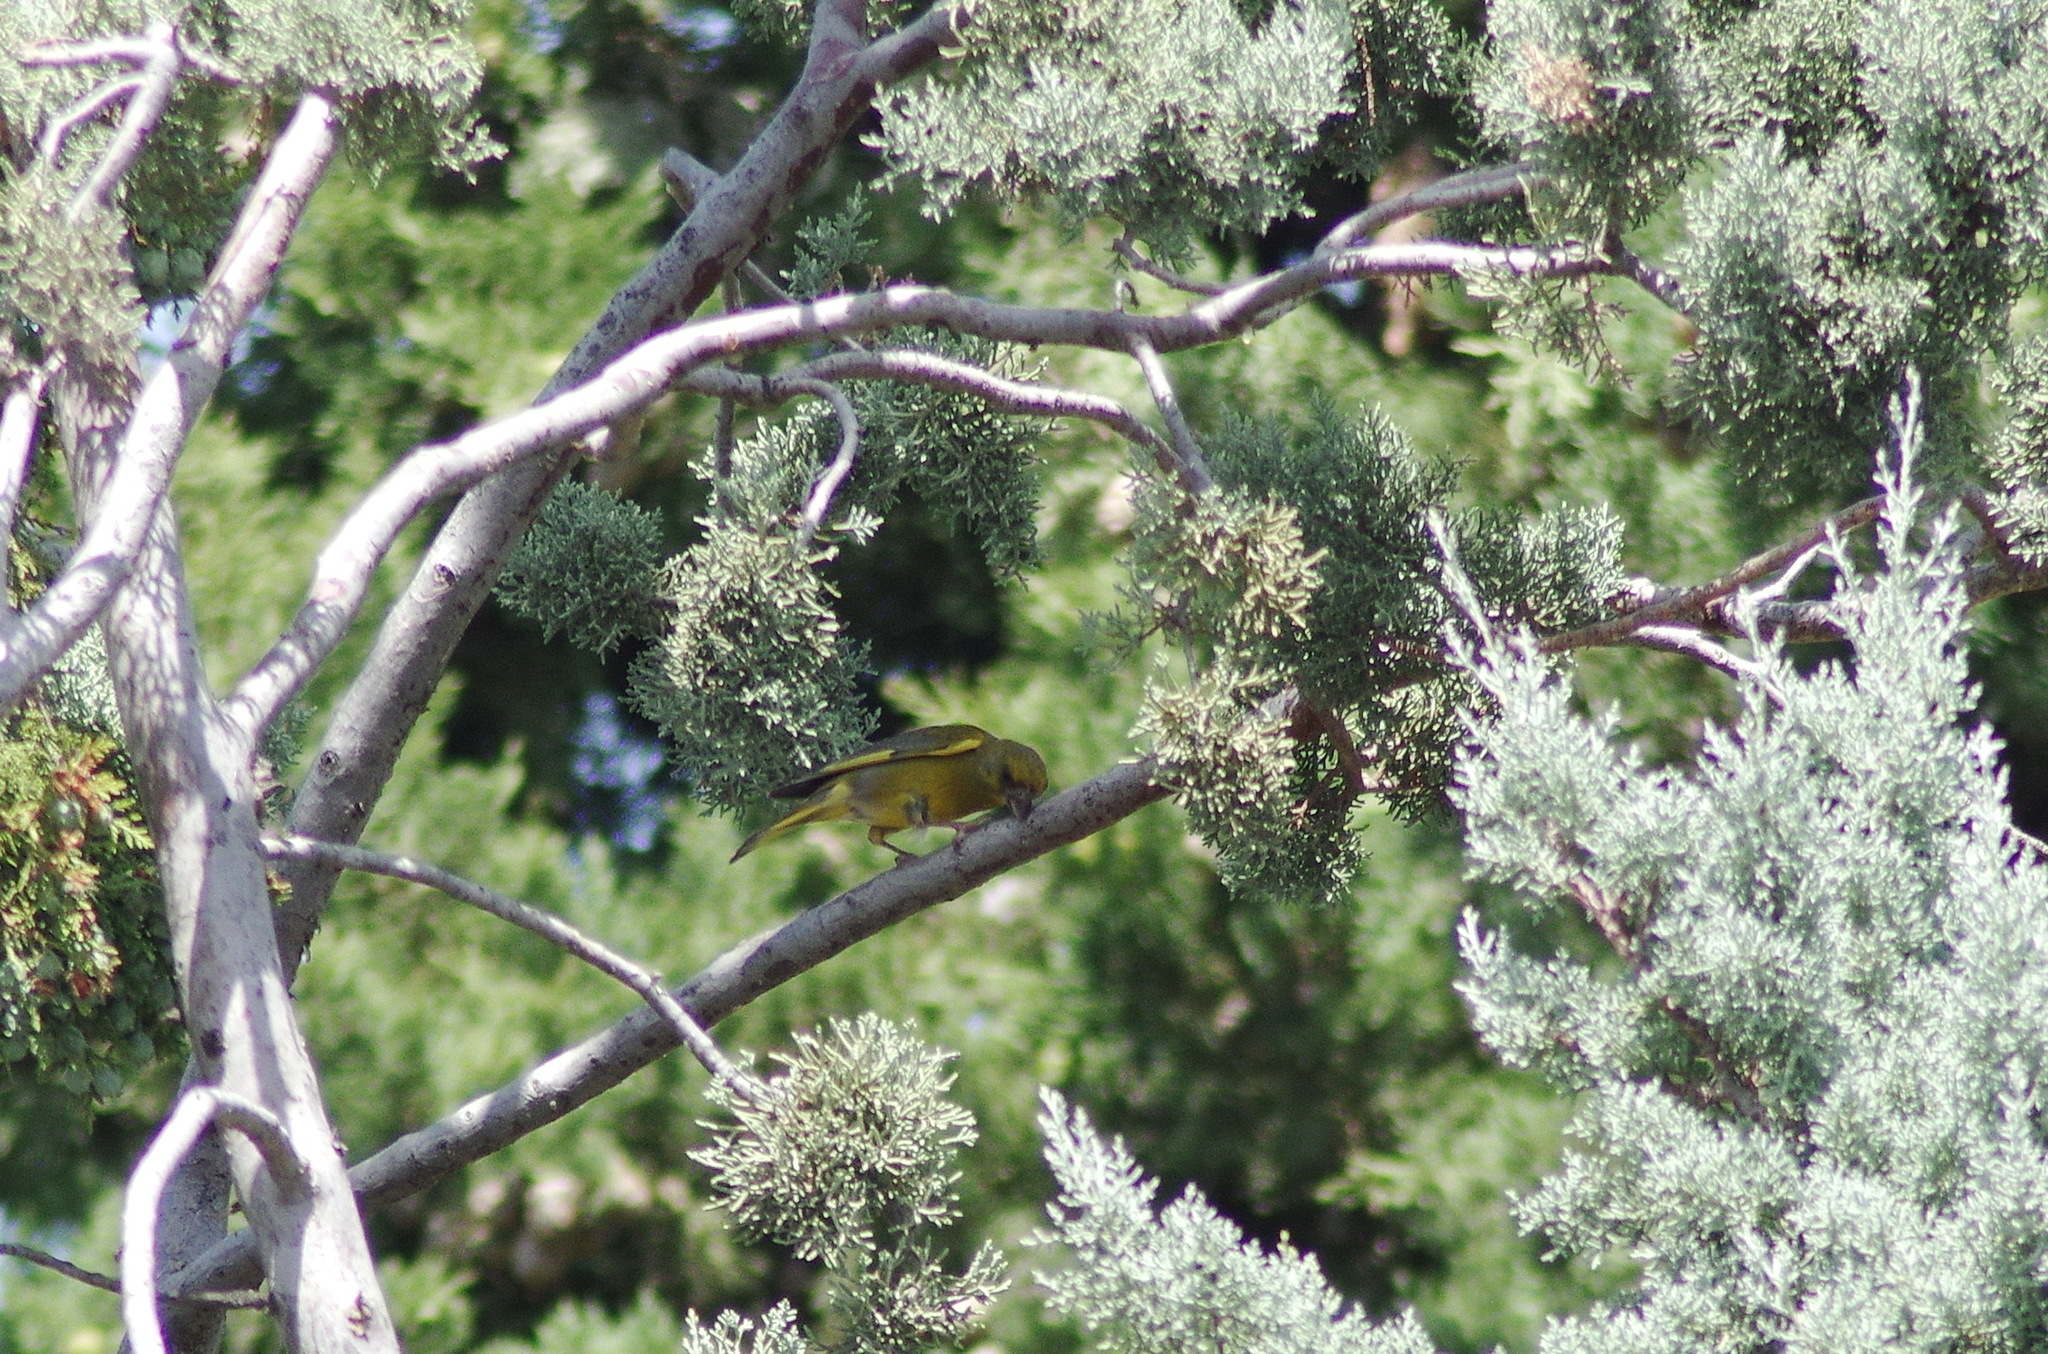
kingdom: Plantae
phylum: Tracheophyta
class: Liliopsida
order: Poales
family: Poaceae
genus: Chloris
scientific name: Chloris chloris
